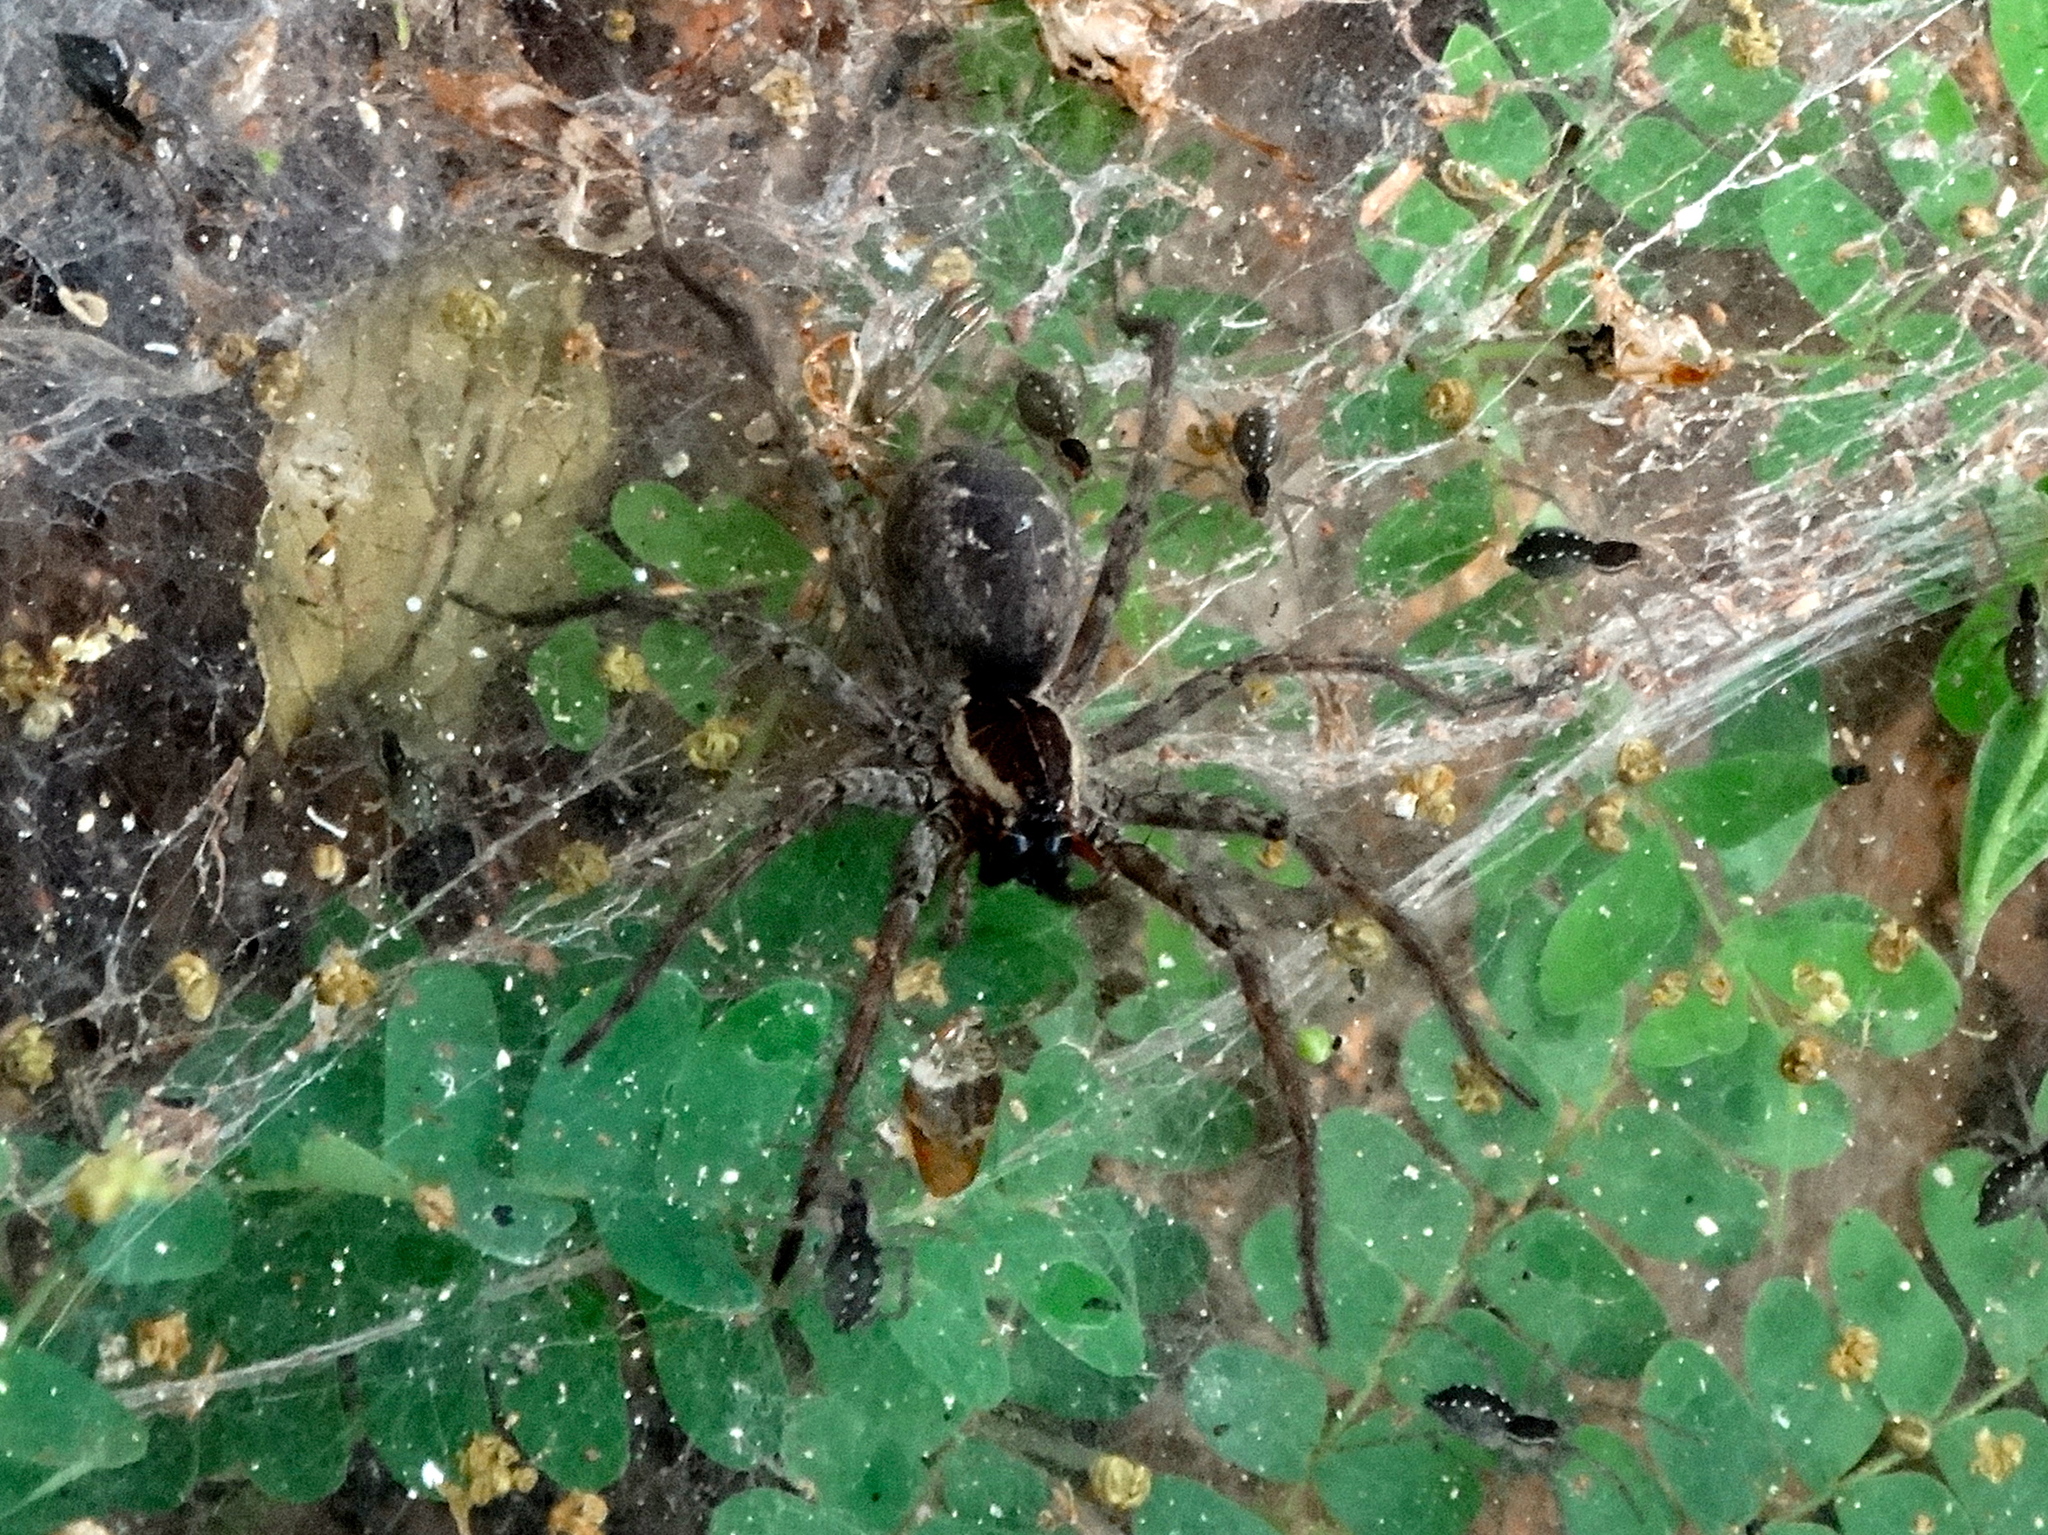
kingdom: Animalia
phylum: Arthropoda
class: Arachnida
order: Araneae
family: Lycosidae
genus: Sosippus
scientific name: Sosippus
